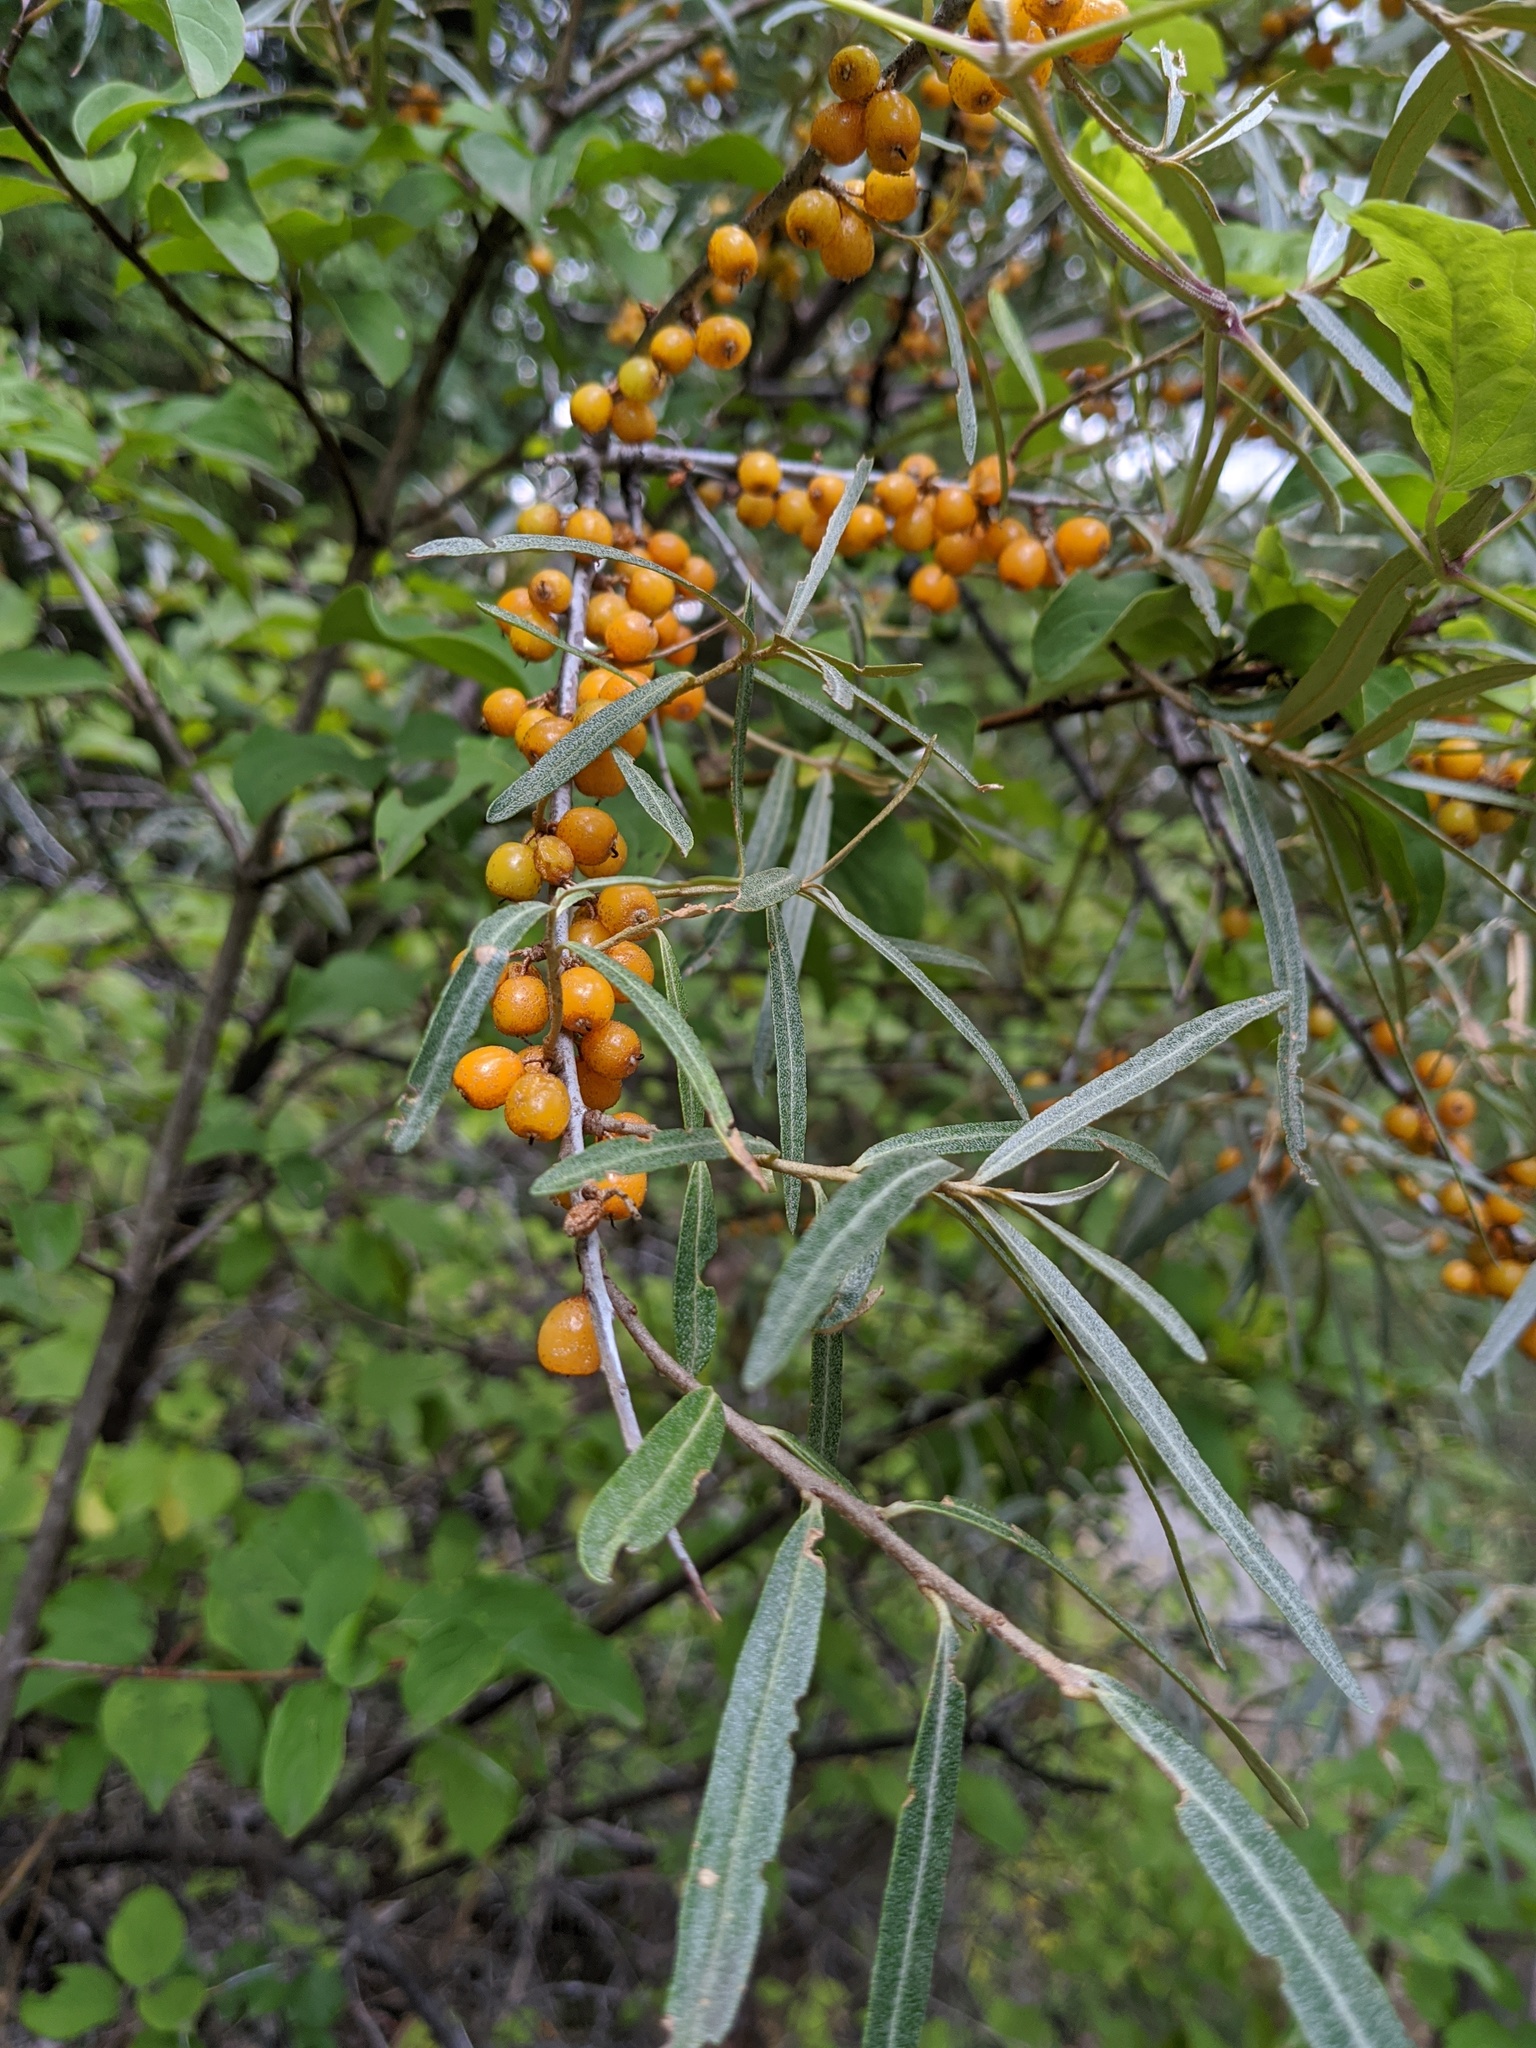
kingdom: Plantae
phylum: Tracheophyta
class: Magnoliopsida
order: Rosales
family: Elaeagnaceae
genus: Hippophae
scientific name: Hippophae rhamnoides
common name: Sea-buckthorn
